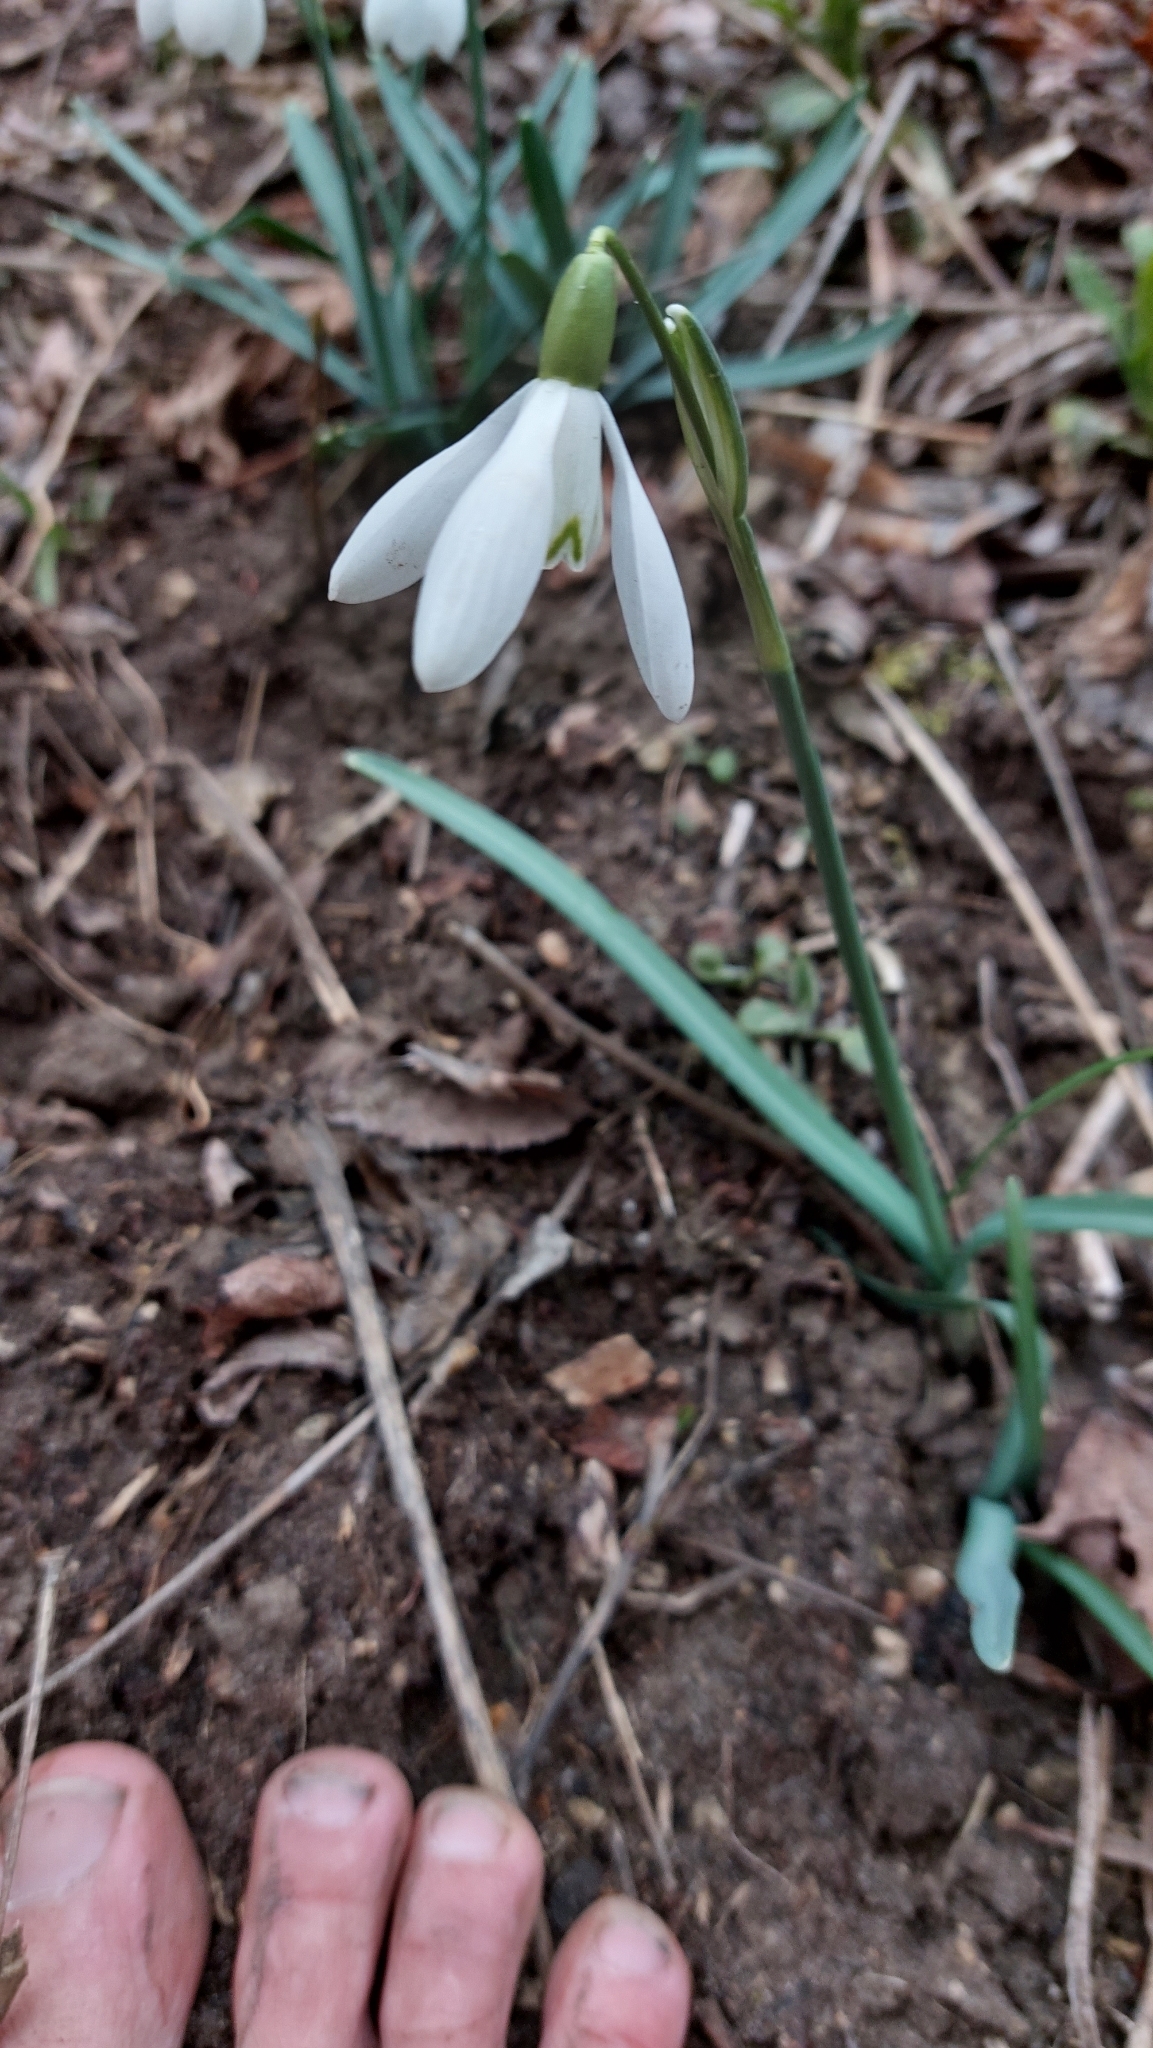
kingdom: Plantae
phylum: Tracheophyta
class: Liliopsida
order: Asparagales
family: Amaryllidaceae
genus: Galanthus
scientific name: Galanthus nivalis
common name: Snowdrop
